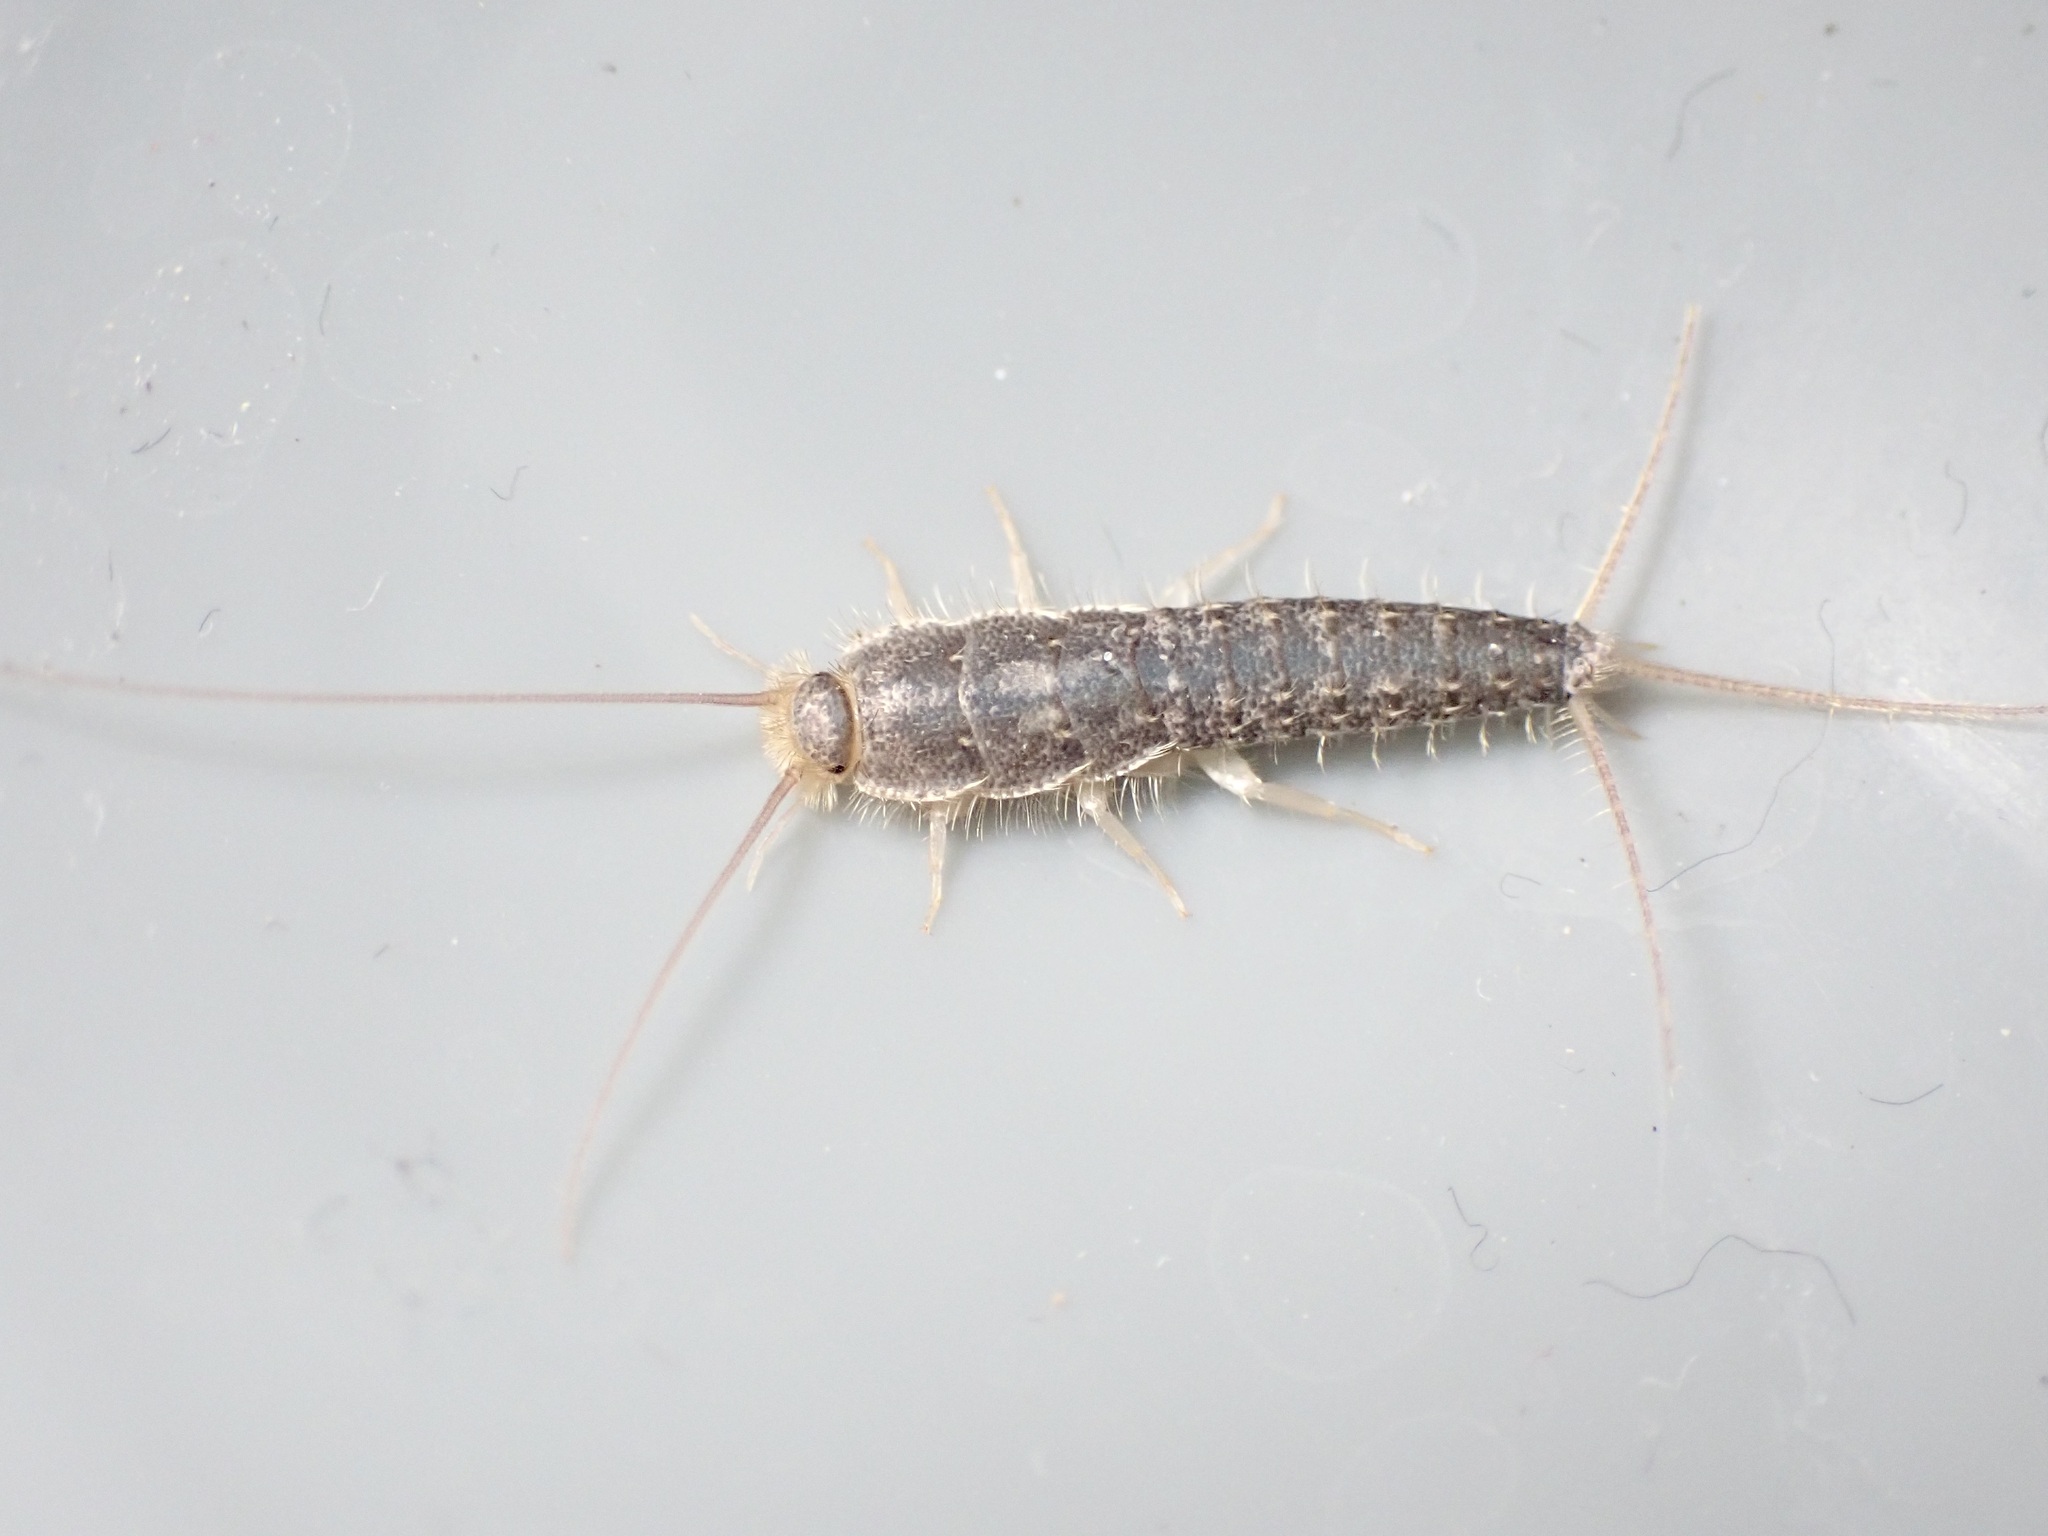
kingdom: Animalia
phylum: Arthropoda
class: Insecta
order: Zygentoma
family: Lepismatidae
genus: Ctenolepisma
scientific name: Ctenolepisma longicaudatum
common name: Silverfish
